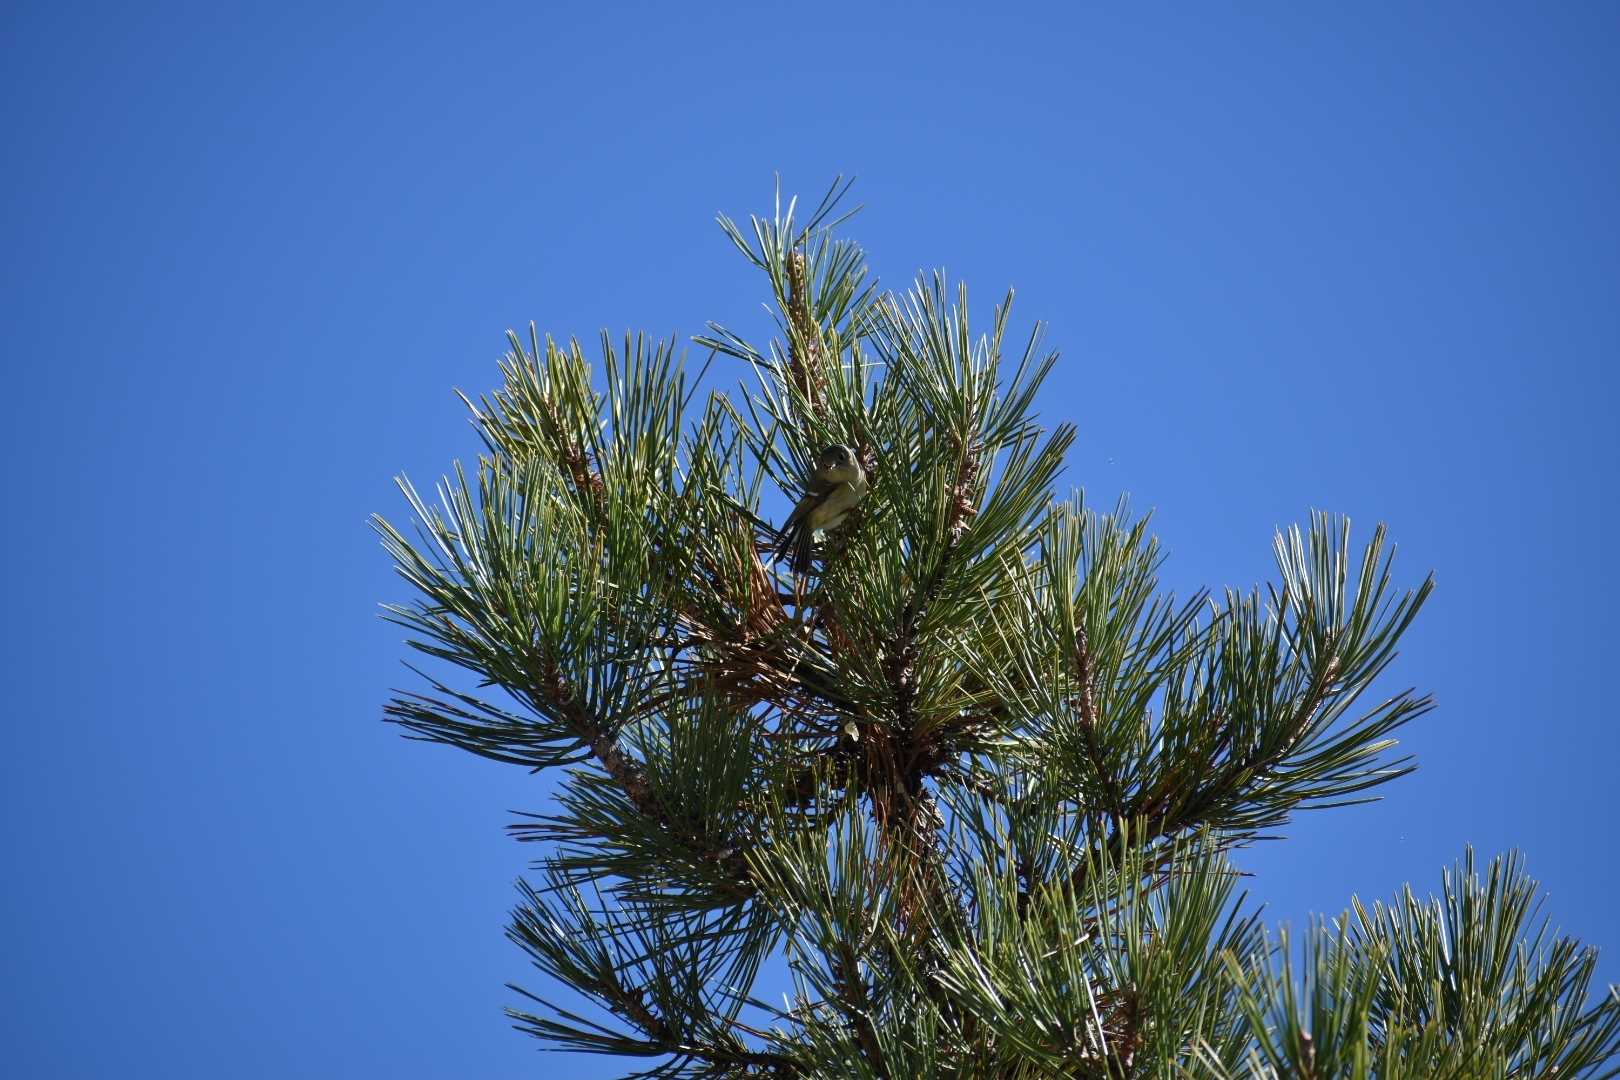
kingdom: Animalia
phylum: Chordata
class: Aves
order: Passeriformes
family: Regulidae
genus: Regulus
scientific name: Regulus calendula
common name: Ruby-crowned kinglet
